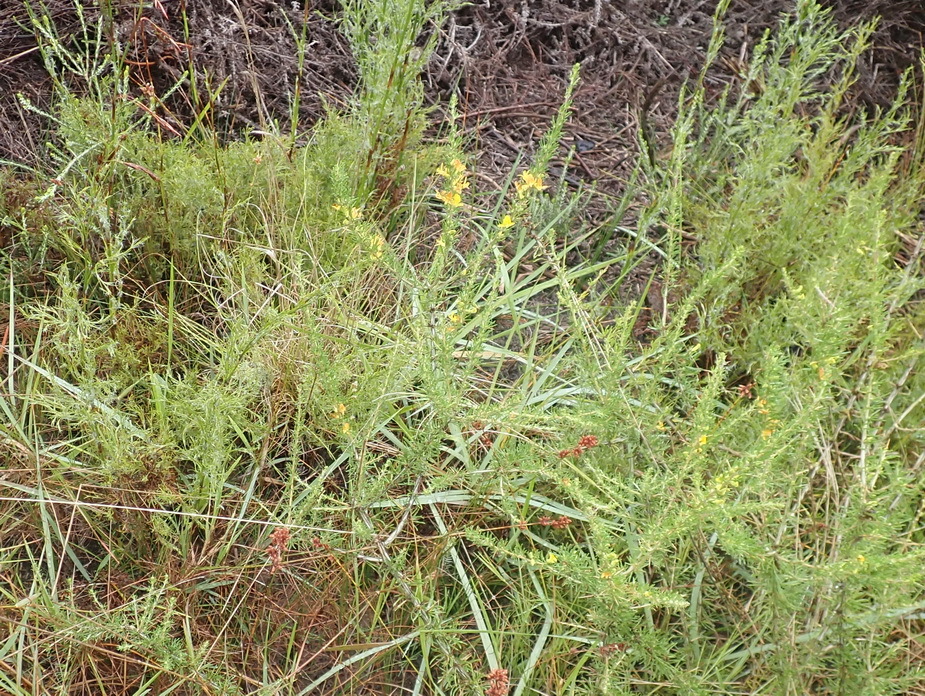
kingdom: Plantae
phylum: Tracheophyta
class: Magnoliopsida
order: Fabales
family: Fabaceae
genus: Aspalathus
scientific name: Aspalathus spinosa
